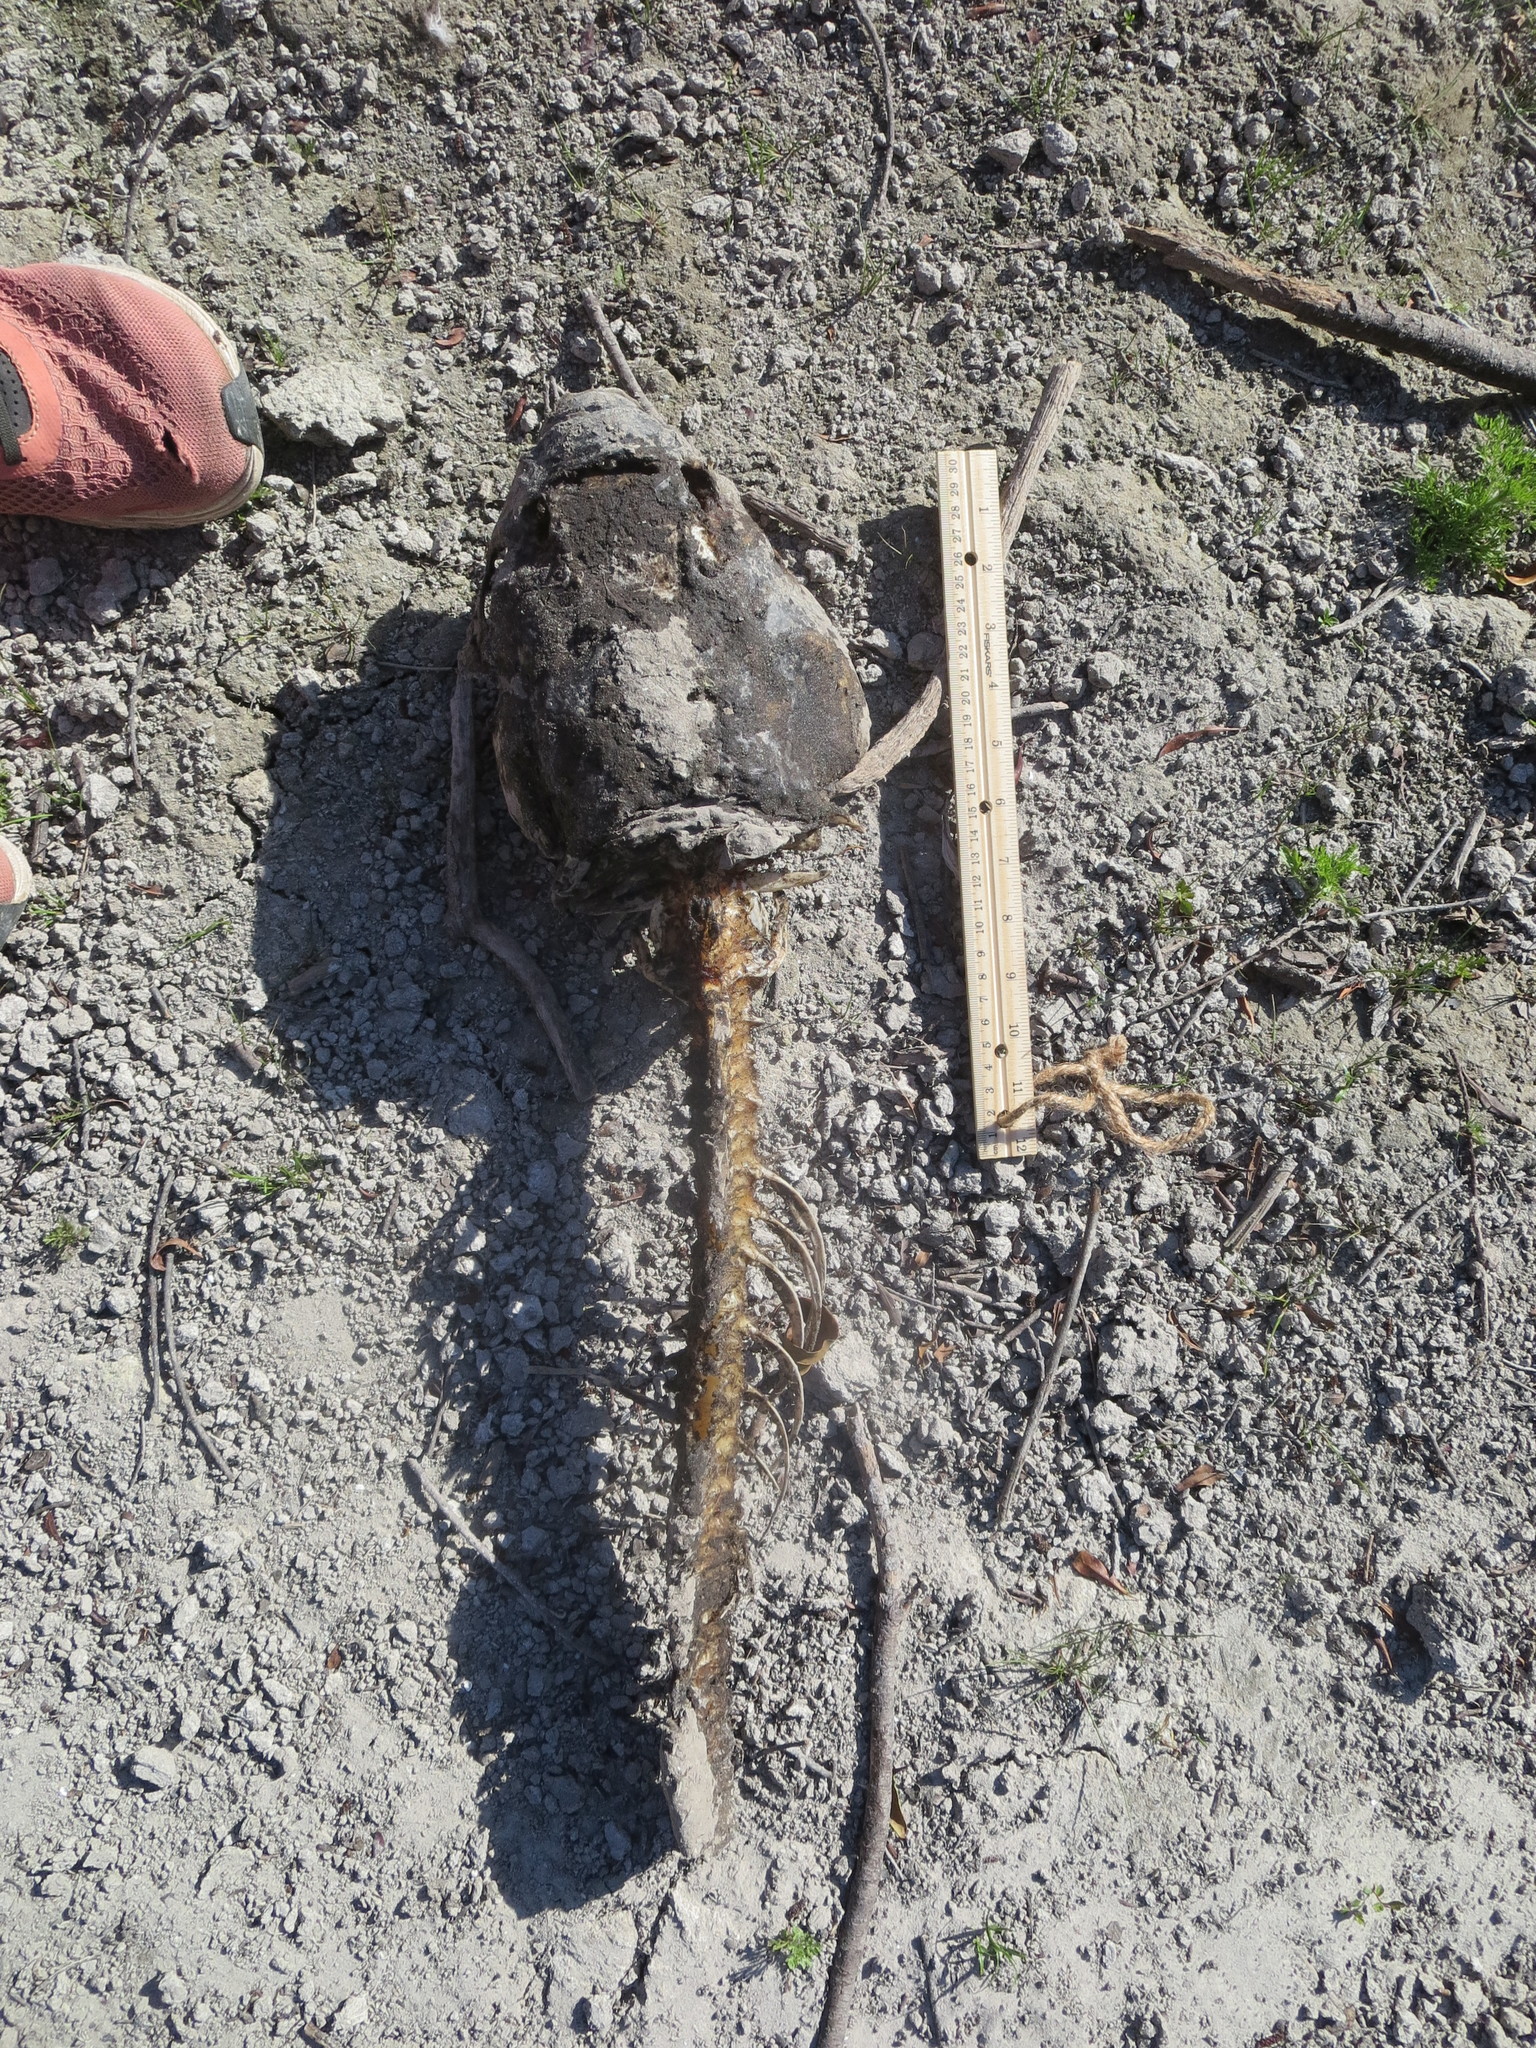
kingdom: Animalia
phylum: Chordata
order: Cypriniformes
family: Cyprinidae
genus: Ctenopharyngodon
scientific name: Ctenopharyngodon idella
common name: Grass carp
